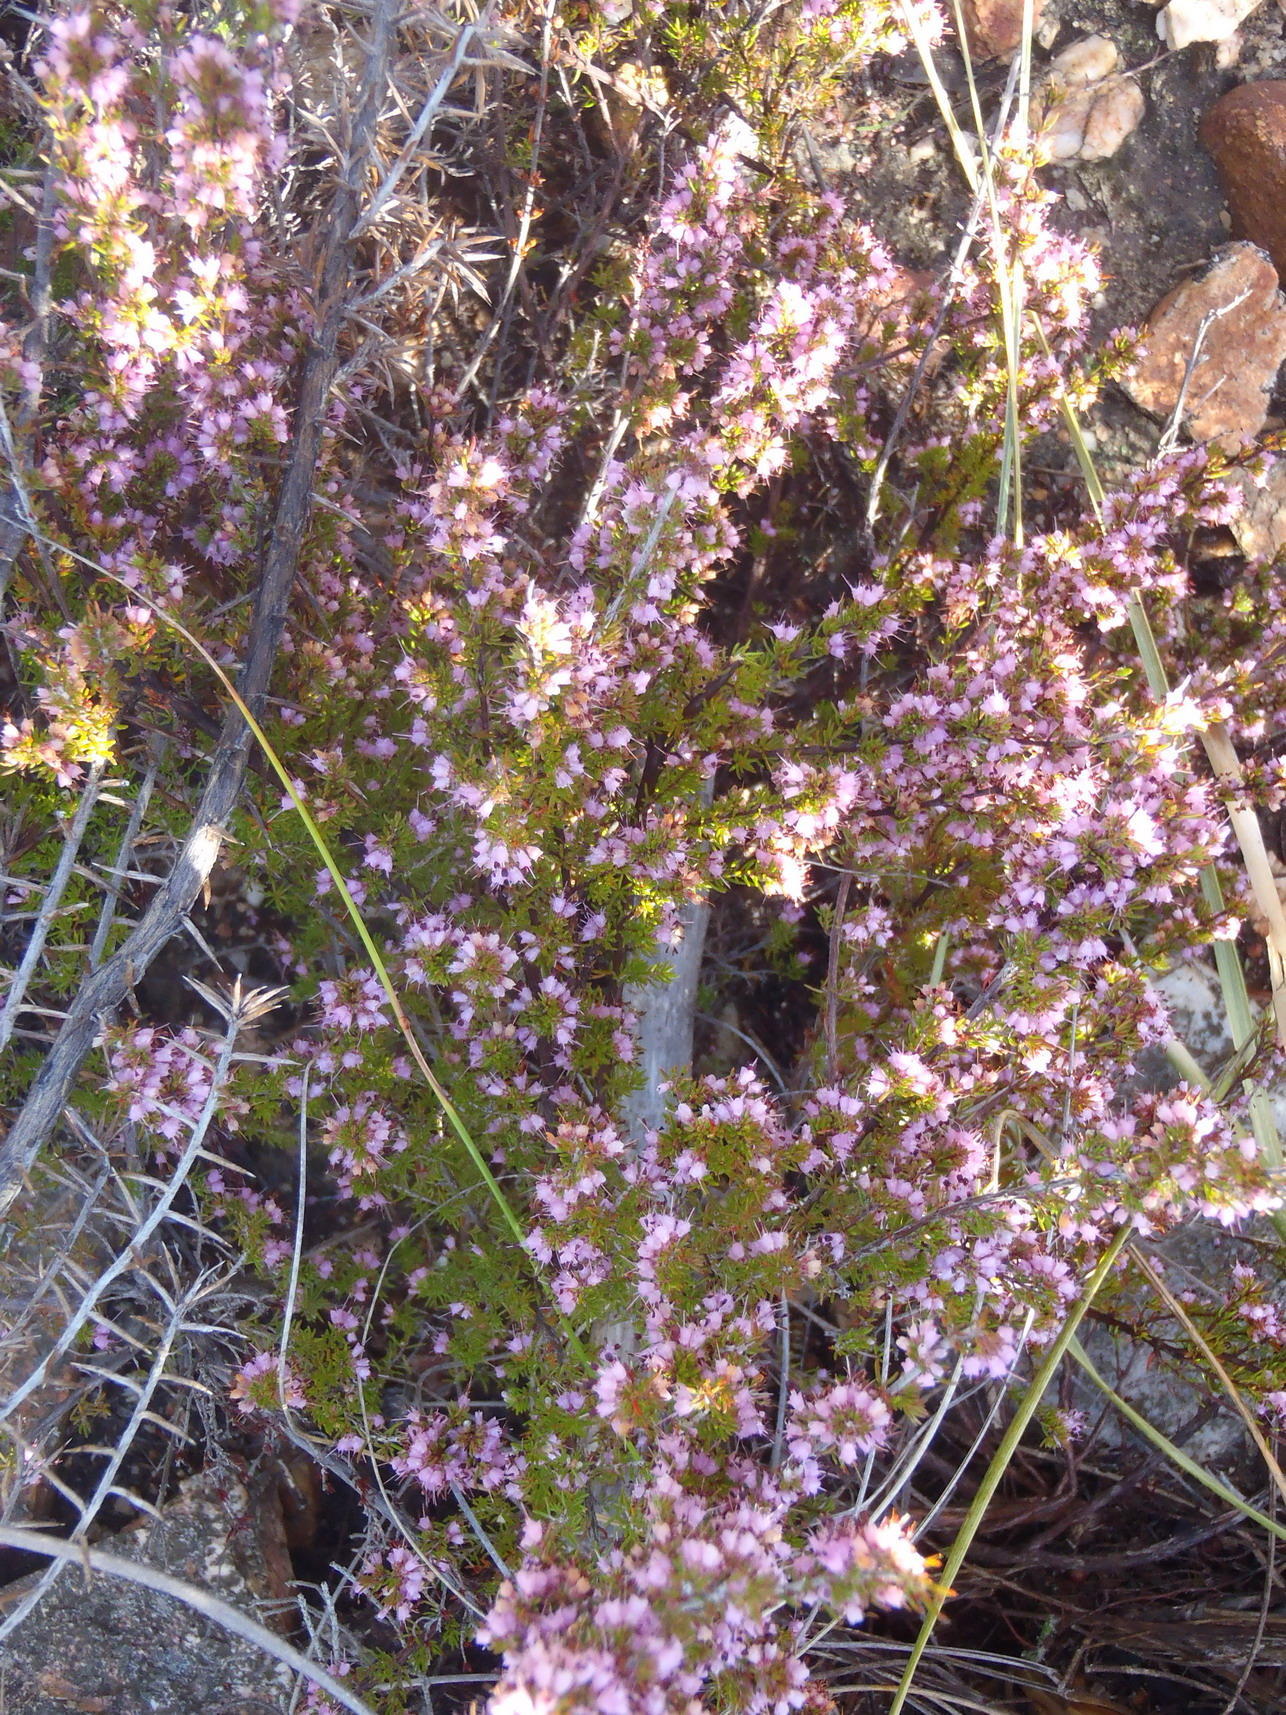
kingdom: Plantae
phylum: Tracheophyta
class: Magnoliopsida
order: Ericales
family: Ericaceae
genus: Erica
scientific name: Erica anguliger
